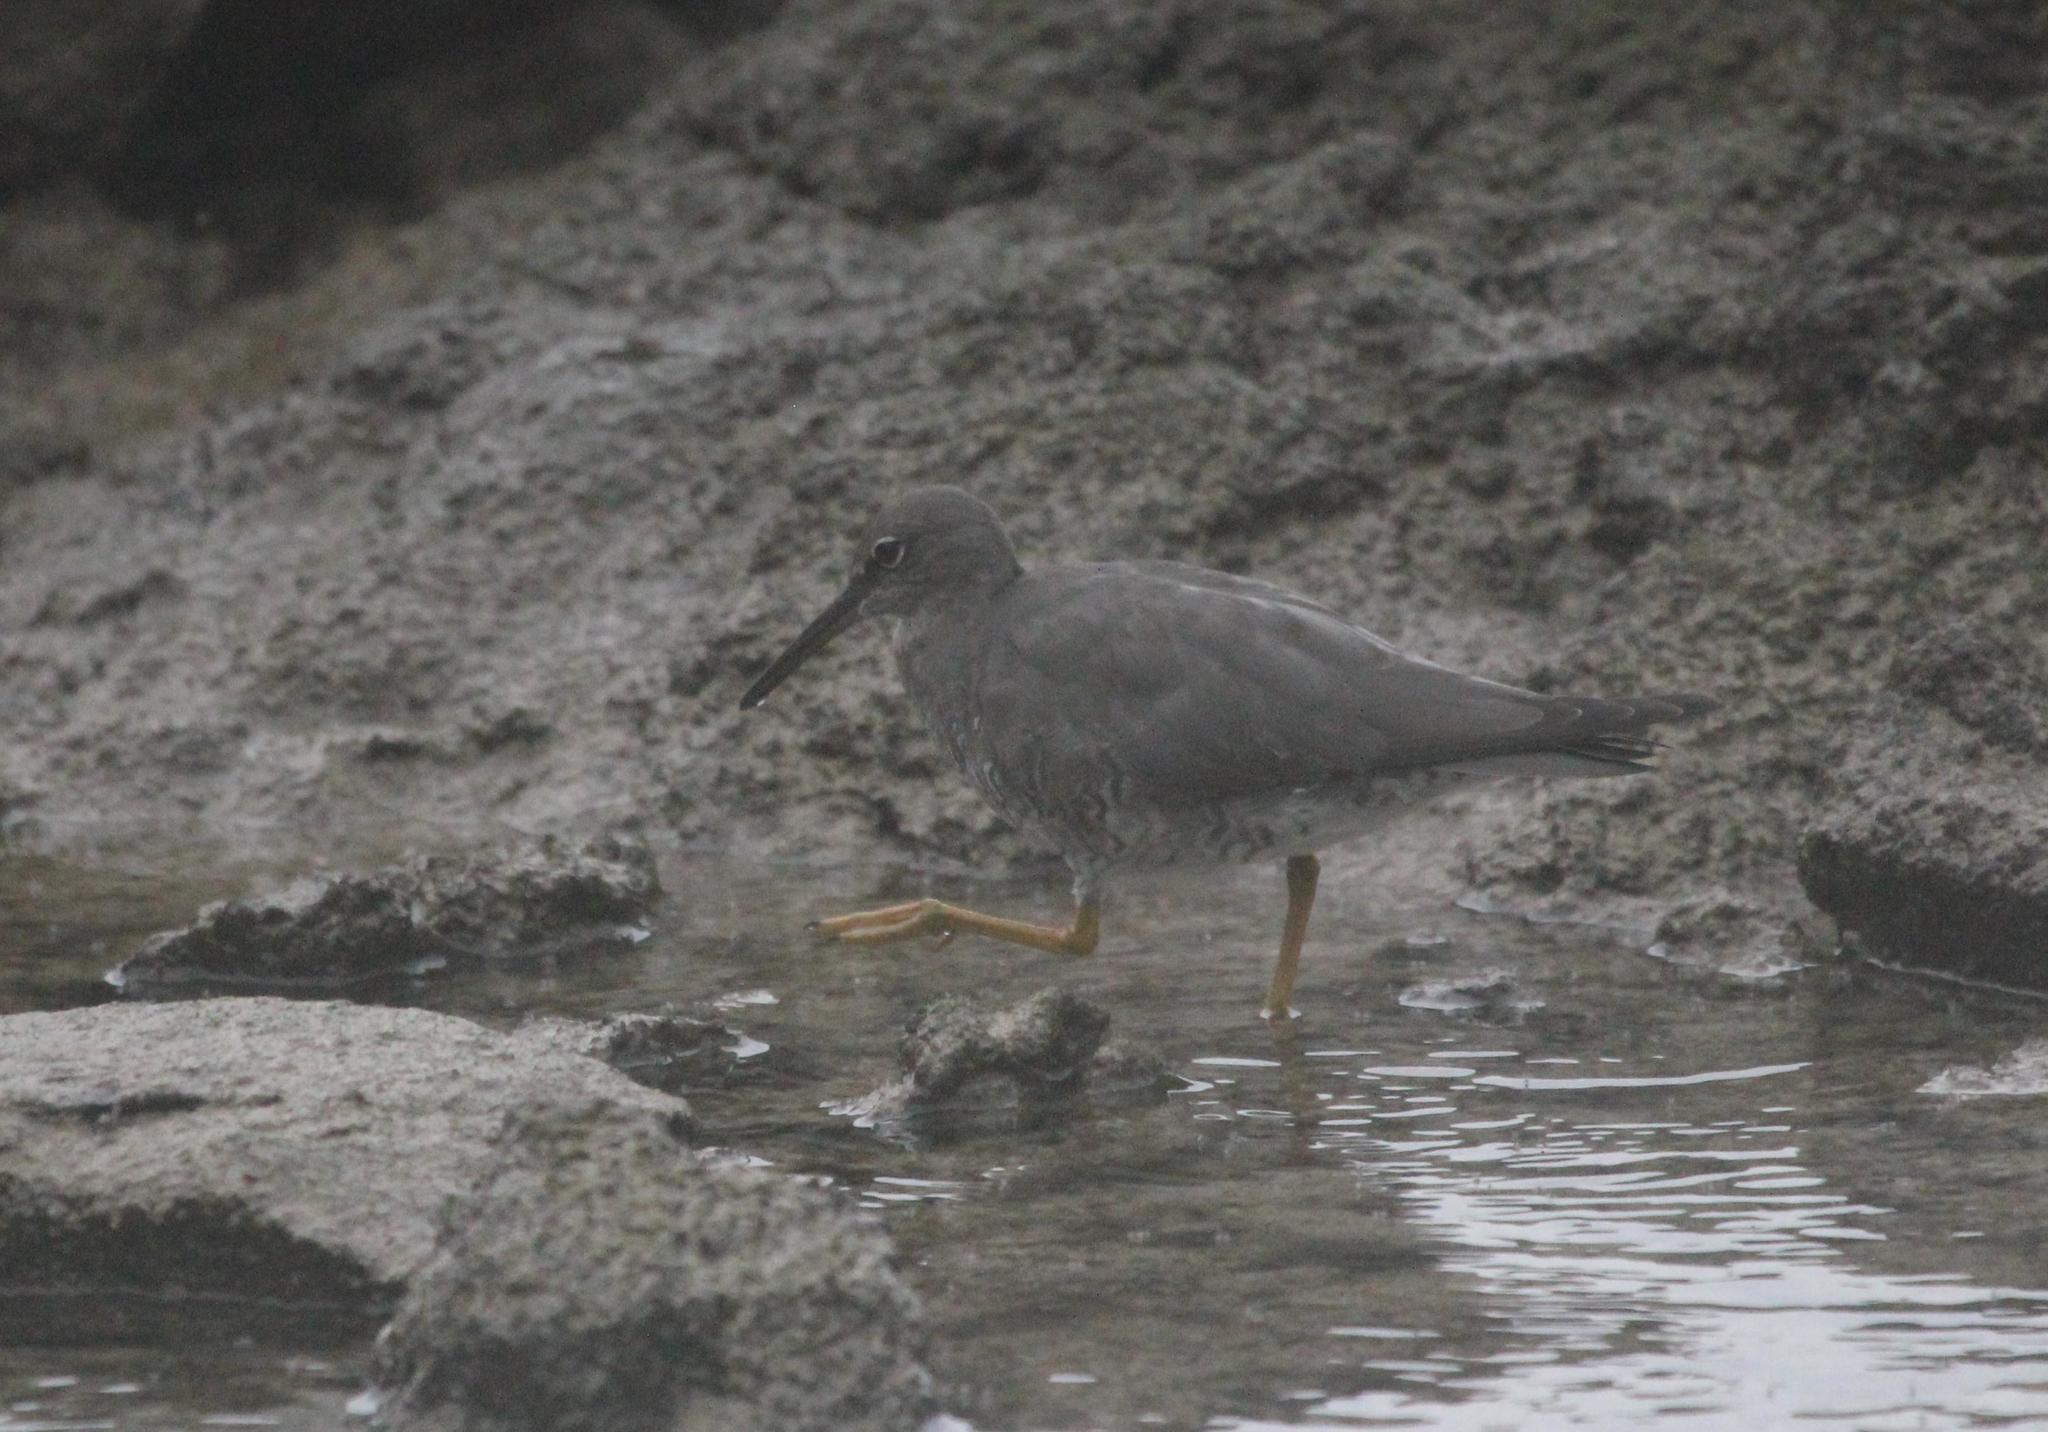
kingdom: Animalia
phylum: Chordata
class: Aves
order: Charadriiformes
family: Scolopacidae
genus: Tringa
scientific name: Tringa incana
